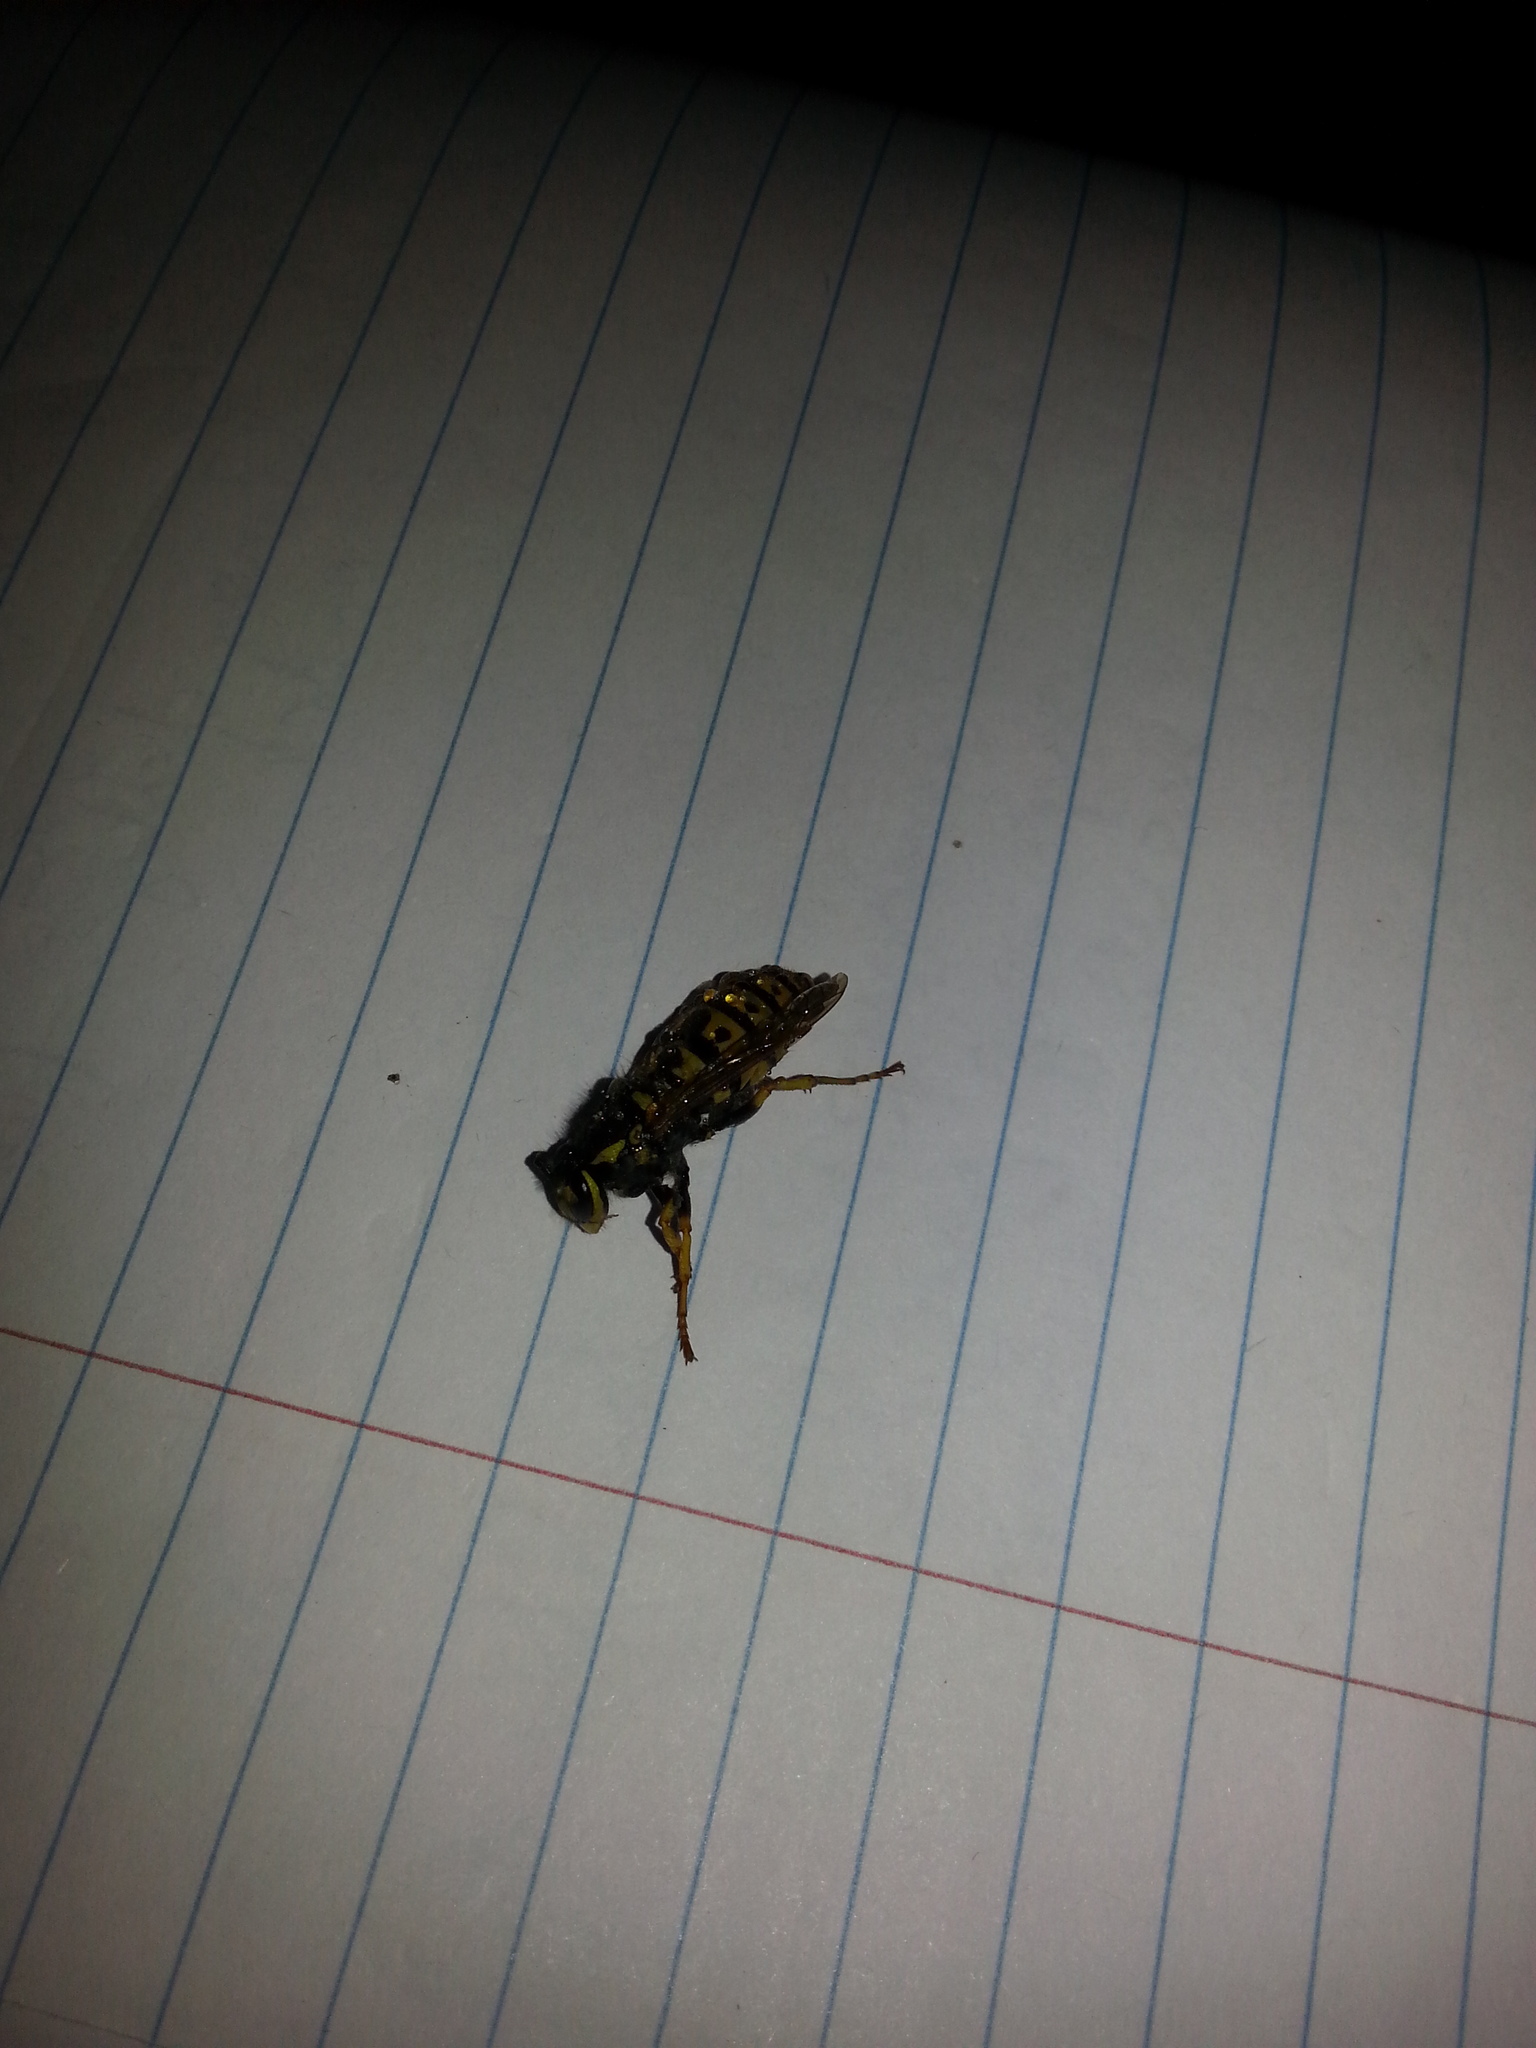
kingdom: Animalia
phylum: Arthropoda
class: Insecta
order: Hymenoptera
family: Vespidae
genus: Vespula
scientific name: Vespula germanica
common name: German wasp
